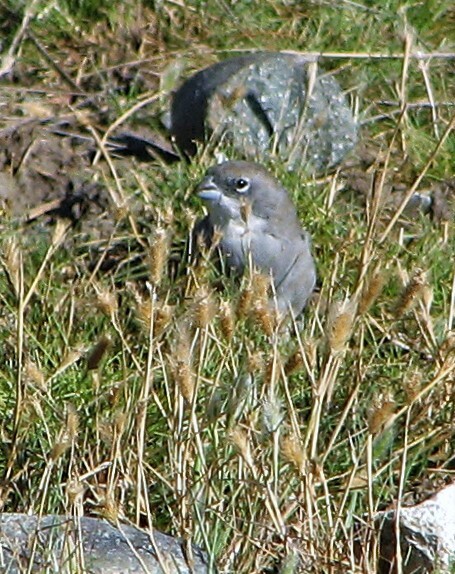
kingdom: Animalia
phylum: Chordata
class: Aves
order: Passeriformes
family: Thraupidae
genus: Diuca
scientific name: Diuca diuca
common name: Common diuca finch
